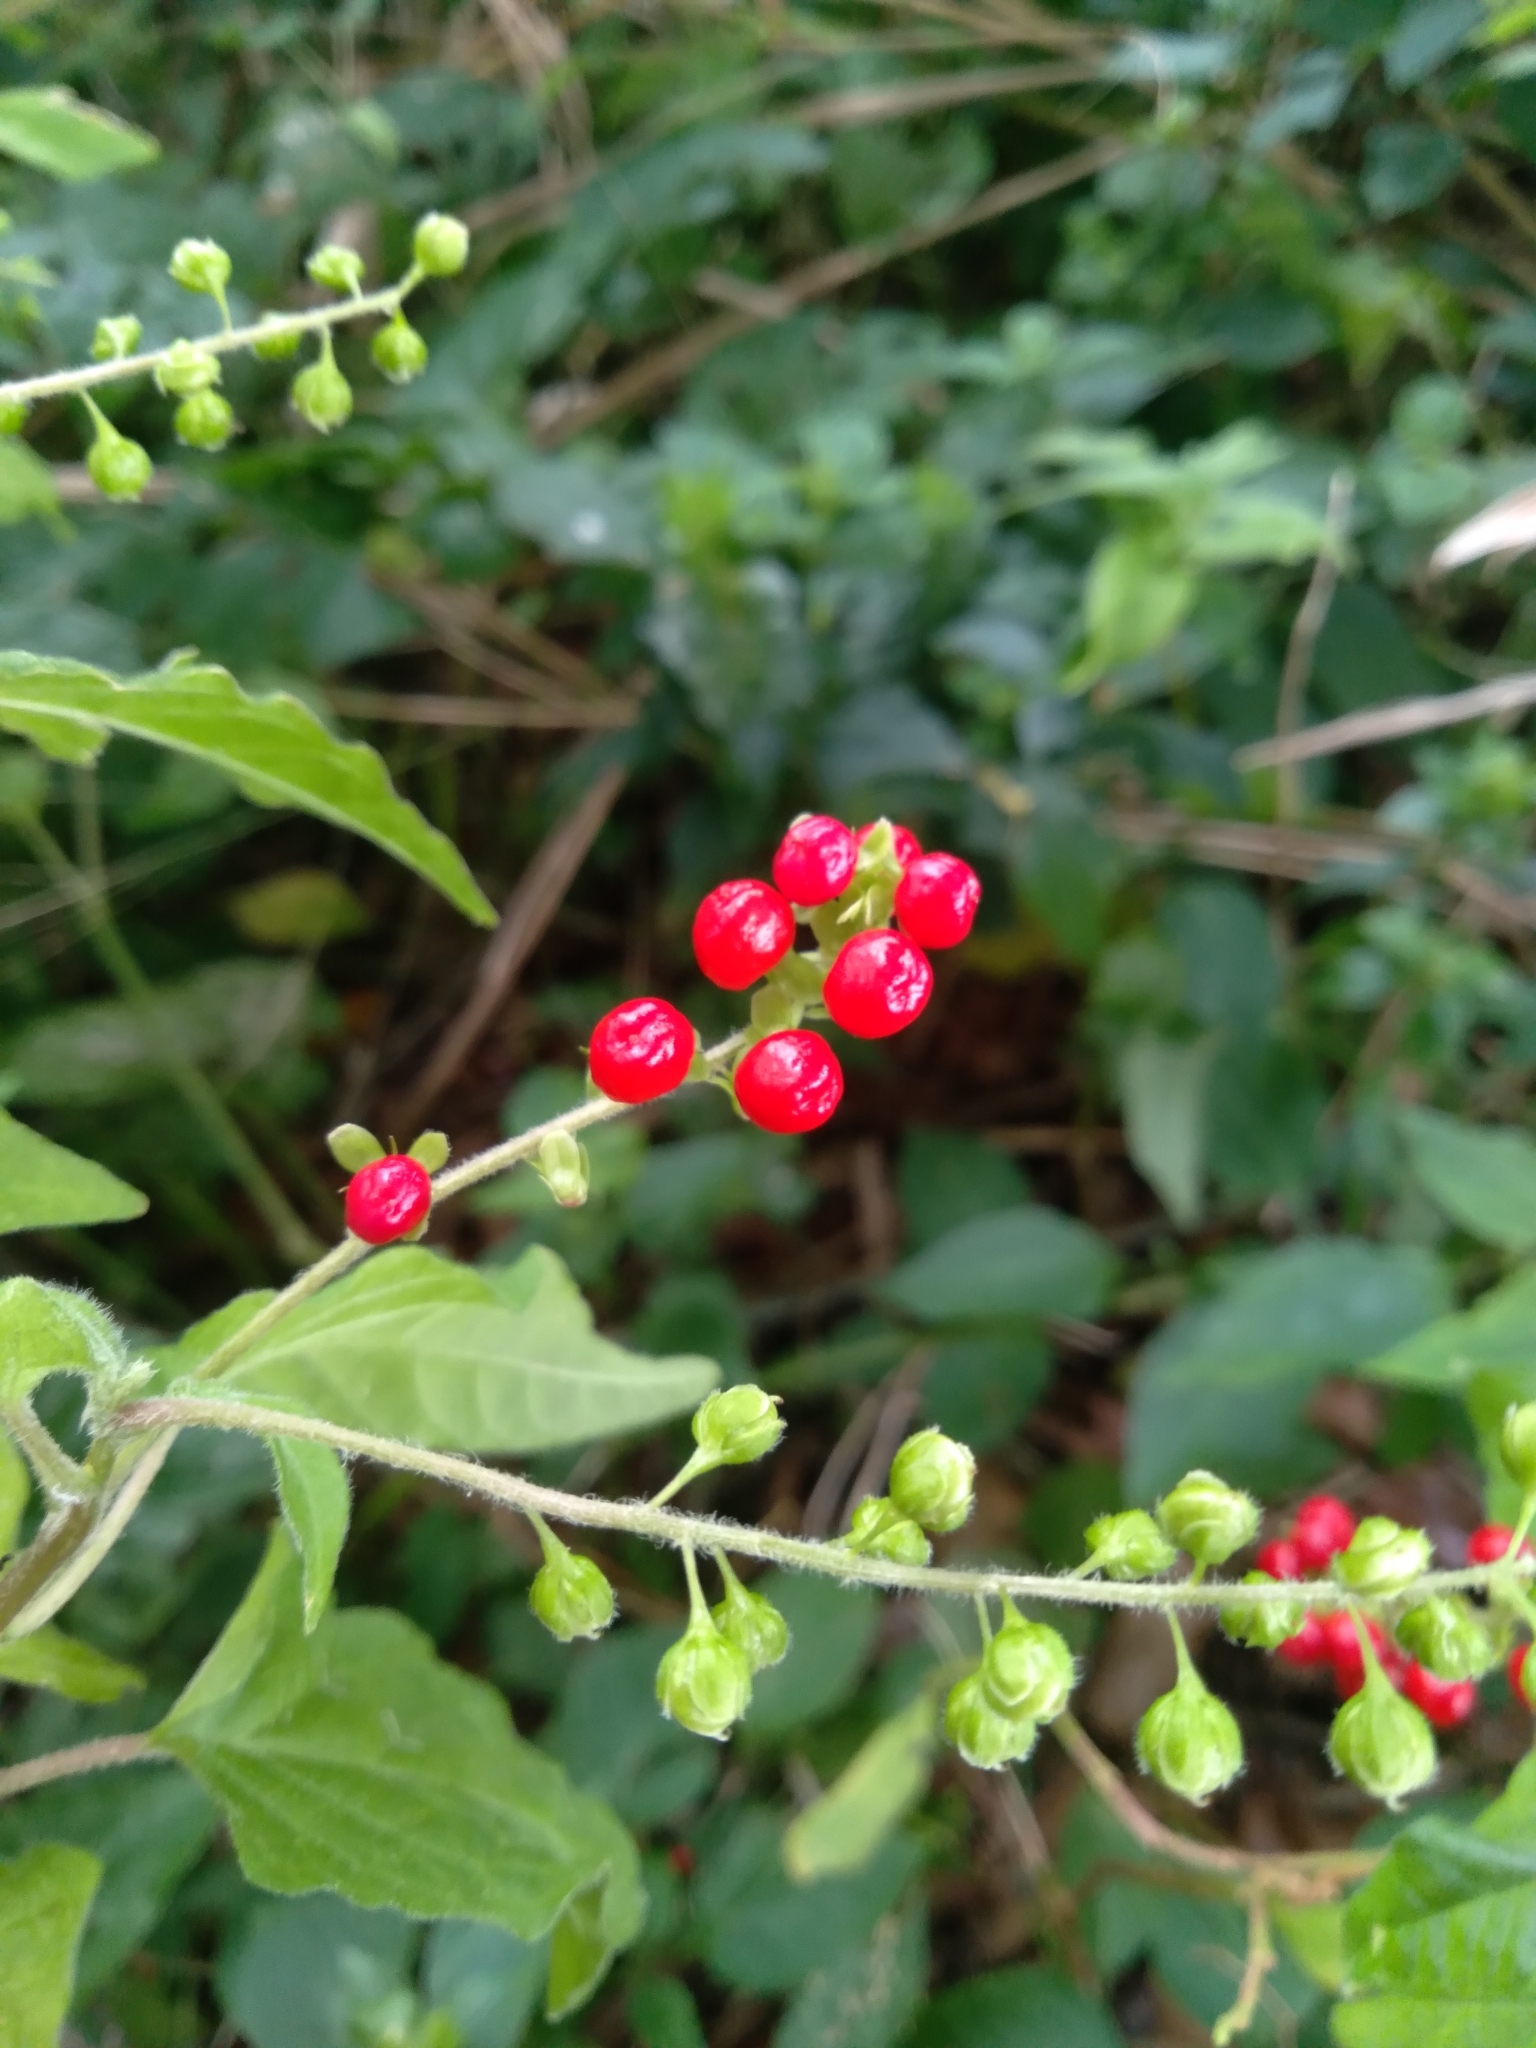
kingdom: Plantae
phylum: Tracheophyta
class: Magnoliopsida
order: Caryophyllales
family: Phytolaccaceae
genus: Rivina
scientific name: Rivina humilis
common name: Rougeplant
